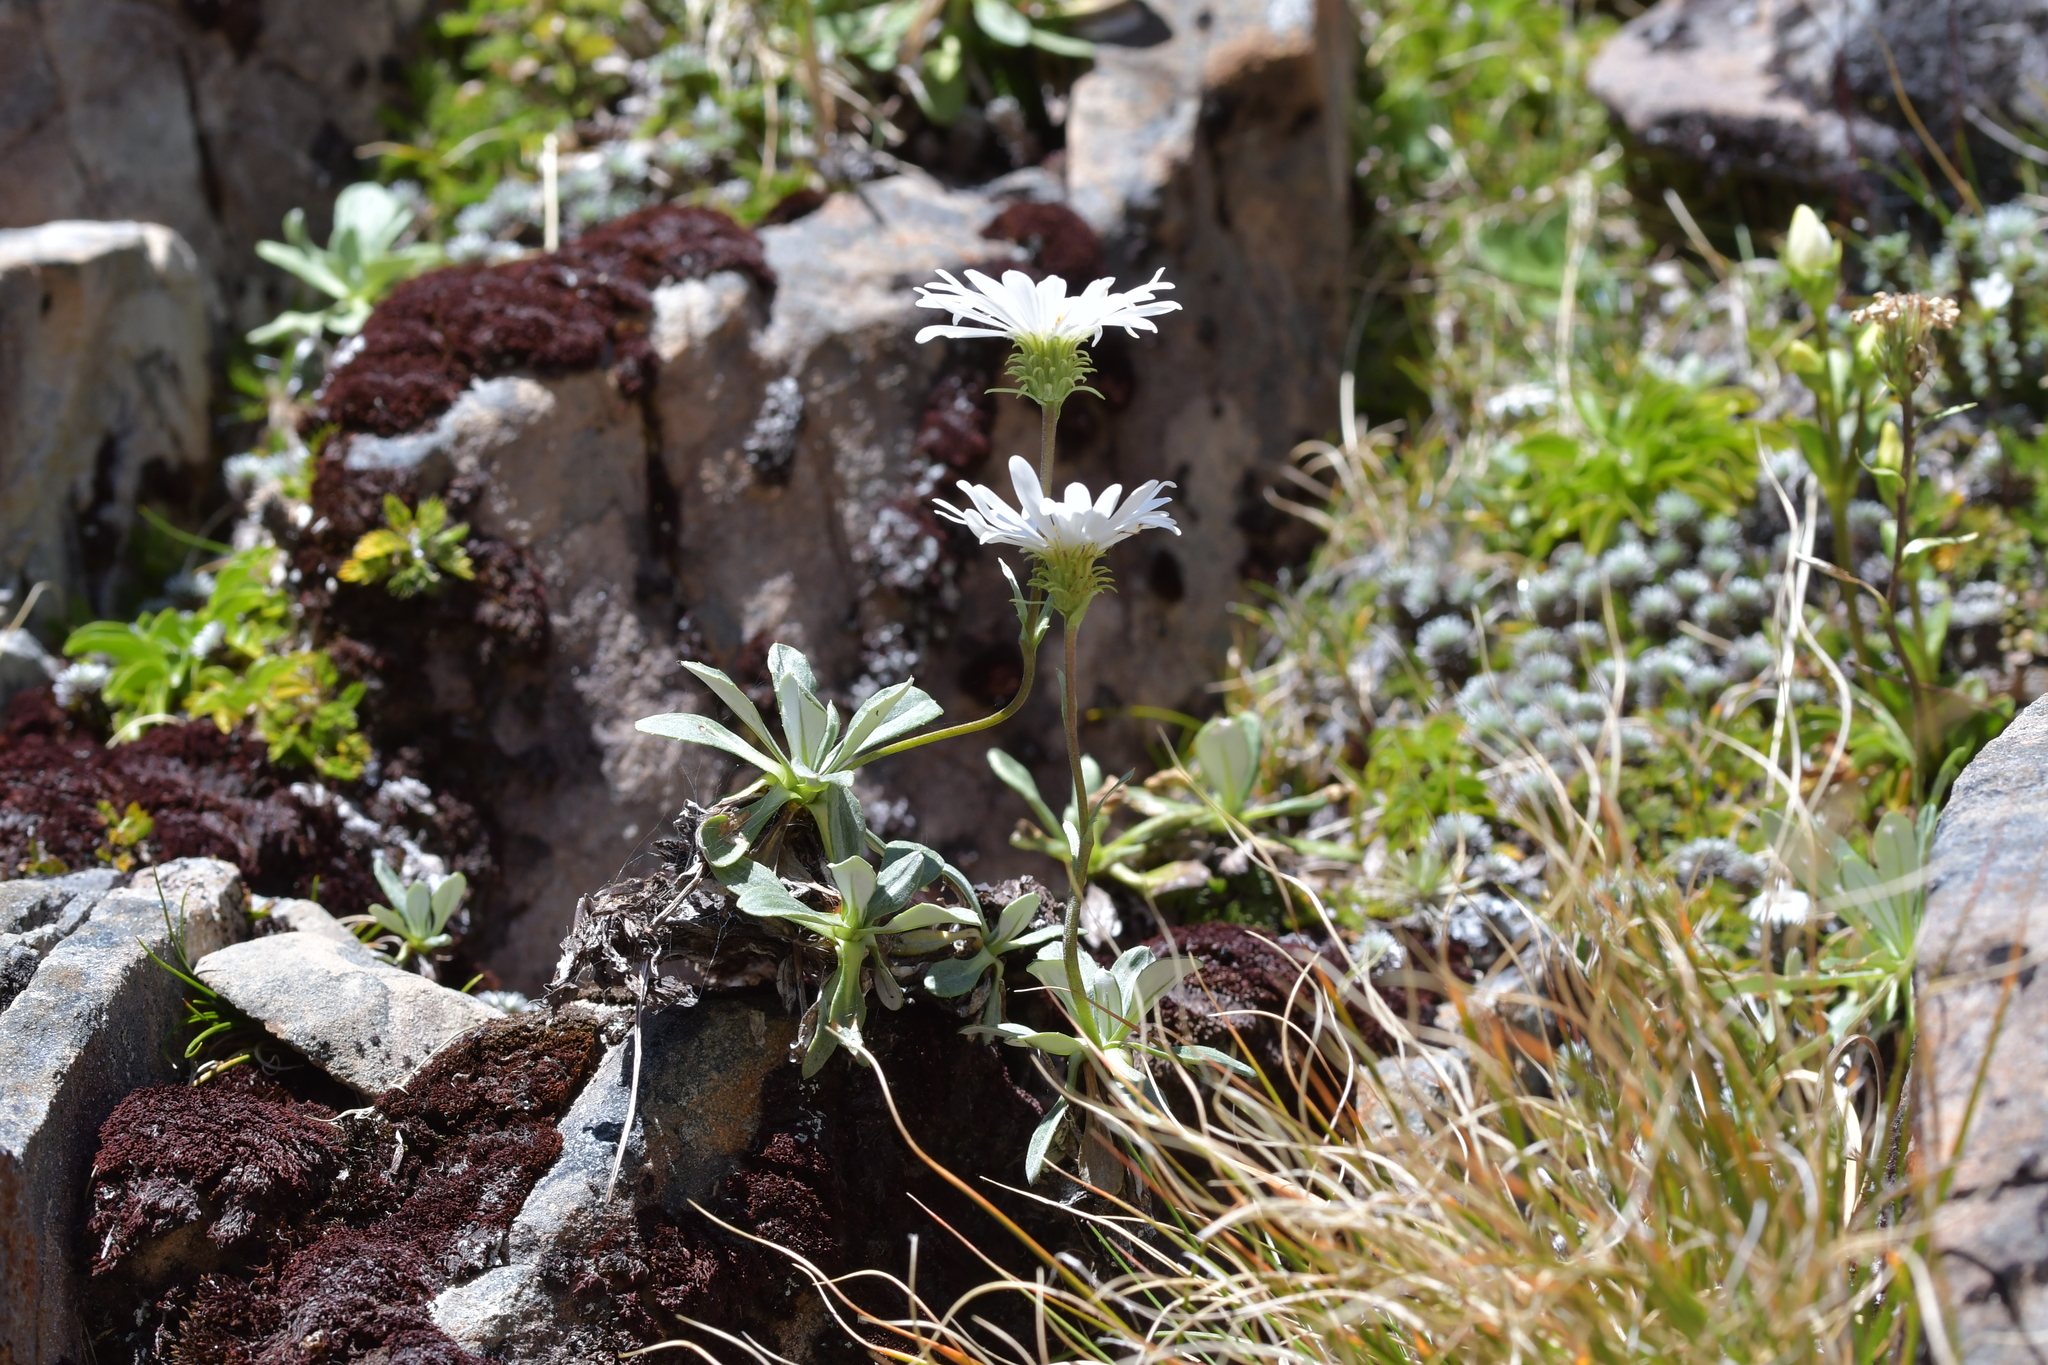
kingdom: Plantae
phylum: Tracheophyta
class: Magnoliopsida
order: Asterales
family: Asteraceae
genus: Celmisia
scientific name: Celmisia durietzii
